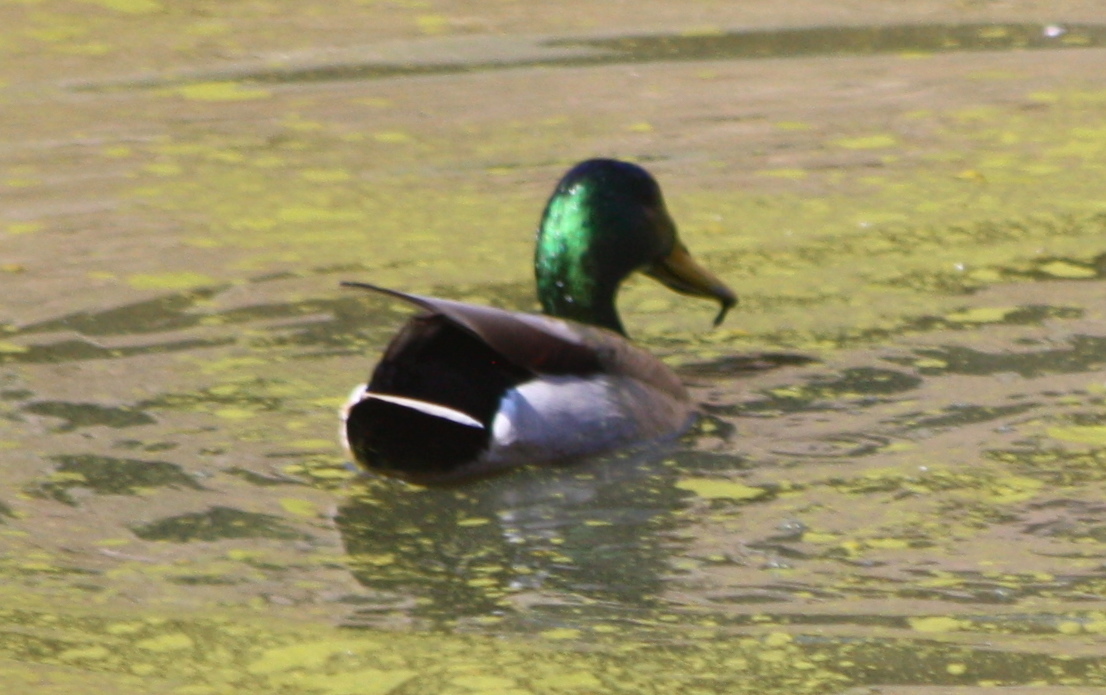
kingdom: Animalia
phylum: Chordata
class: Aves
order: Anseriformes
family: Anatidae
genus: Anas
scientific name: Anas platyrhynchos
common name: Mallard
